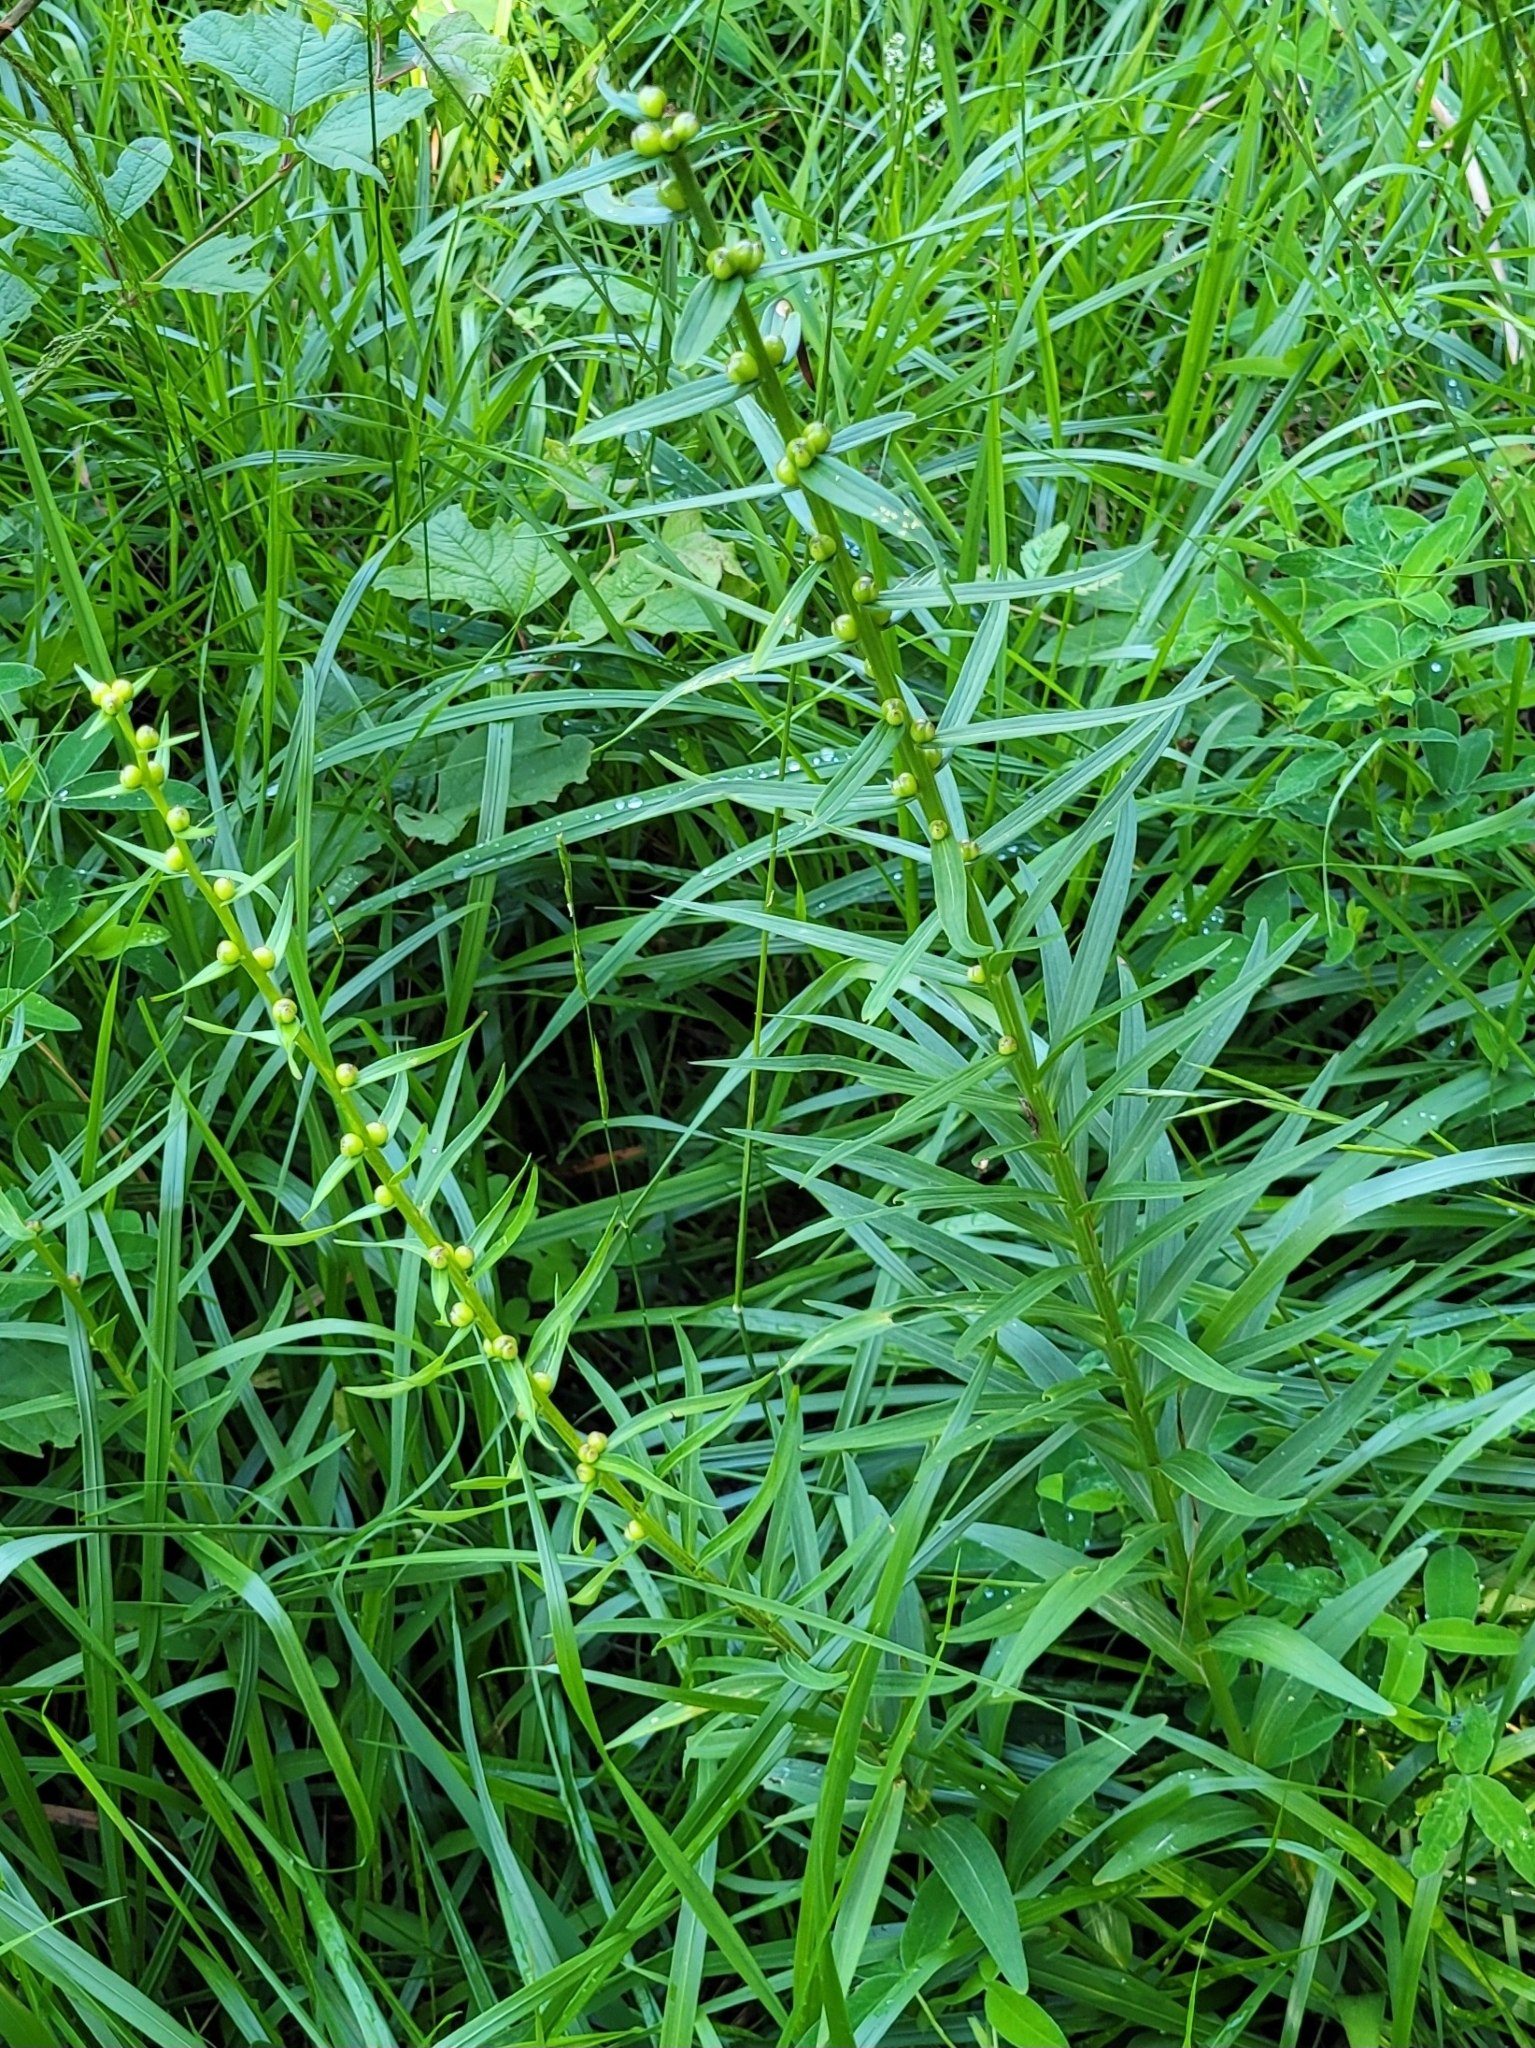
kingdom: Plantae
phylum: Tracheophyta
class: Liliopsida
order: Asparagales
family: Asparagaceae
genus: Polygonatum
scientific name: Polygonatum verticillatum
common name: Whorled solomon's-seal
